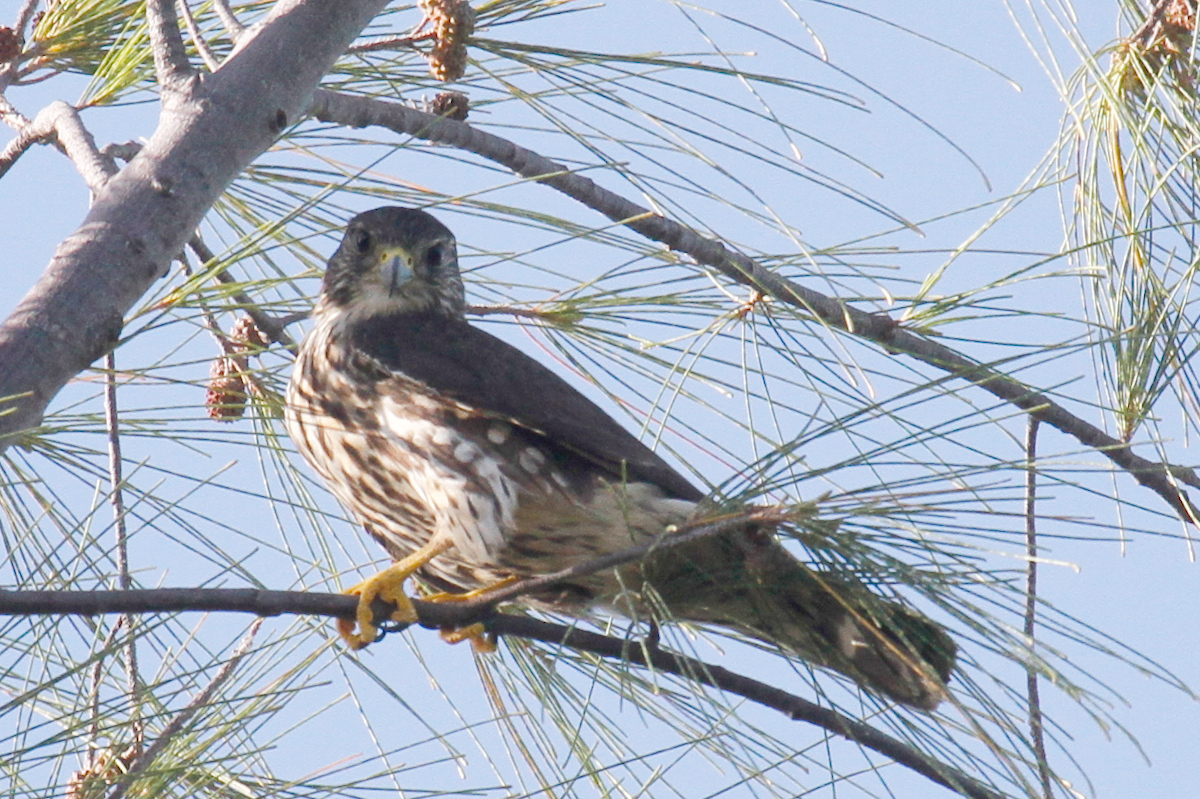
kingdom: Animalia
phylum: Chordata
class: Aves
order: Falconiformes
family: Falconidae
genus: Falco
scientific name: Falco columbarius
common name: Merlin
